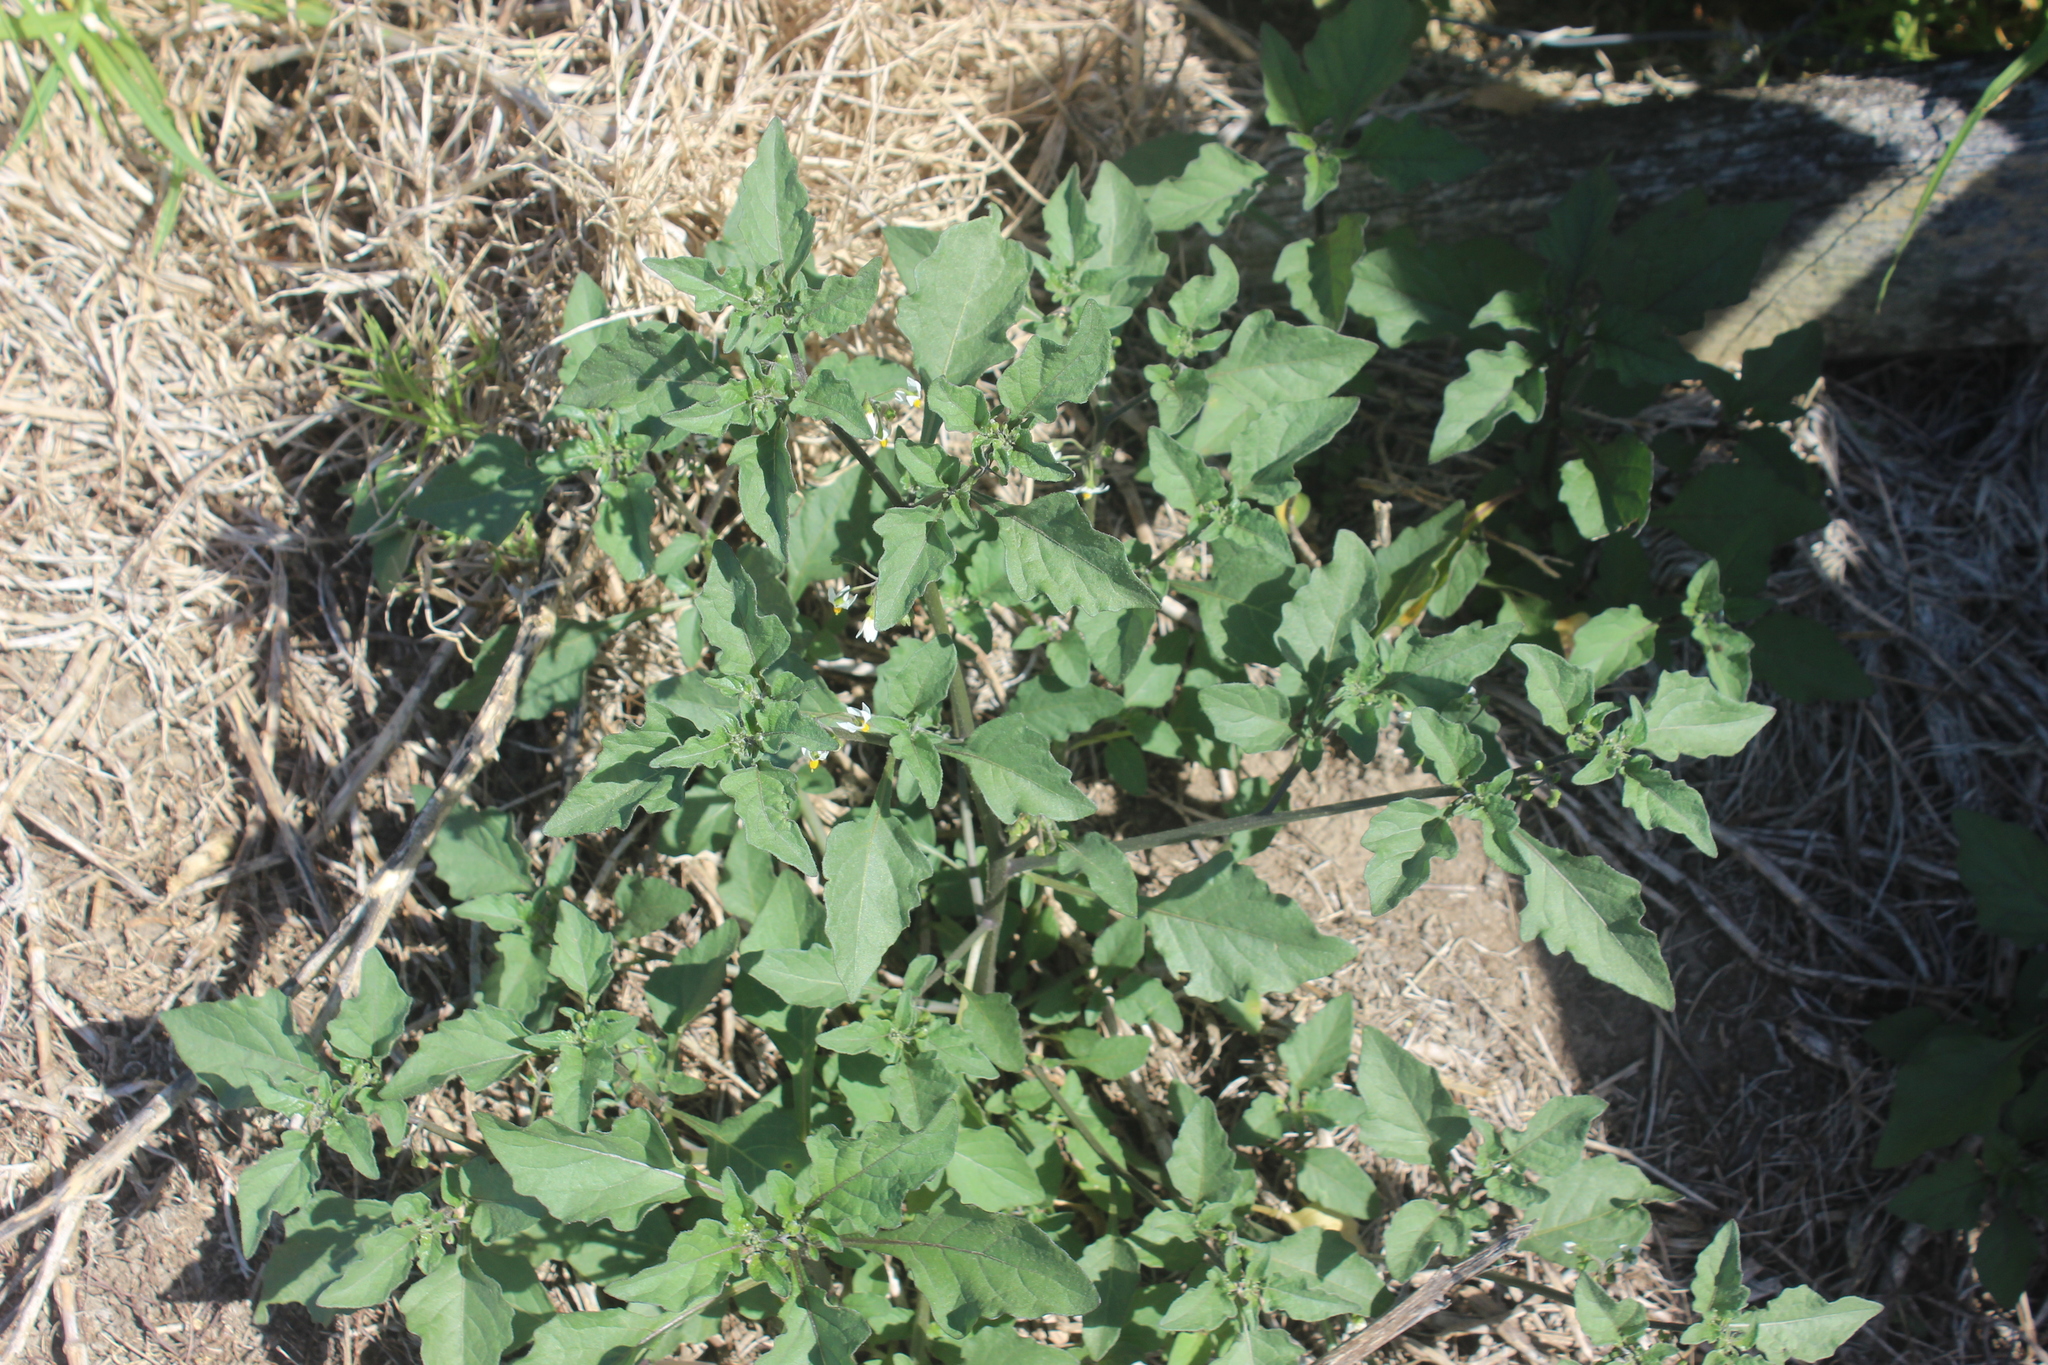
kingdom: Plantae
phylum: Tracheophyta
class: Magnoliopsida
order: Solanales
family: Solanaceae
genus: Solanum
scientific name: Solanum nigrum
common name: Black nightshade
